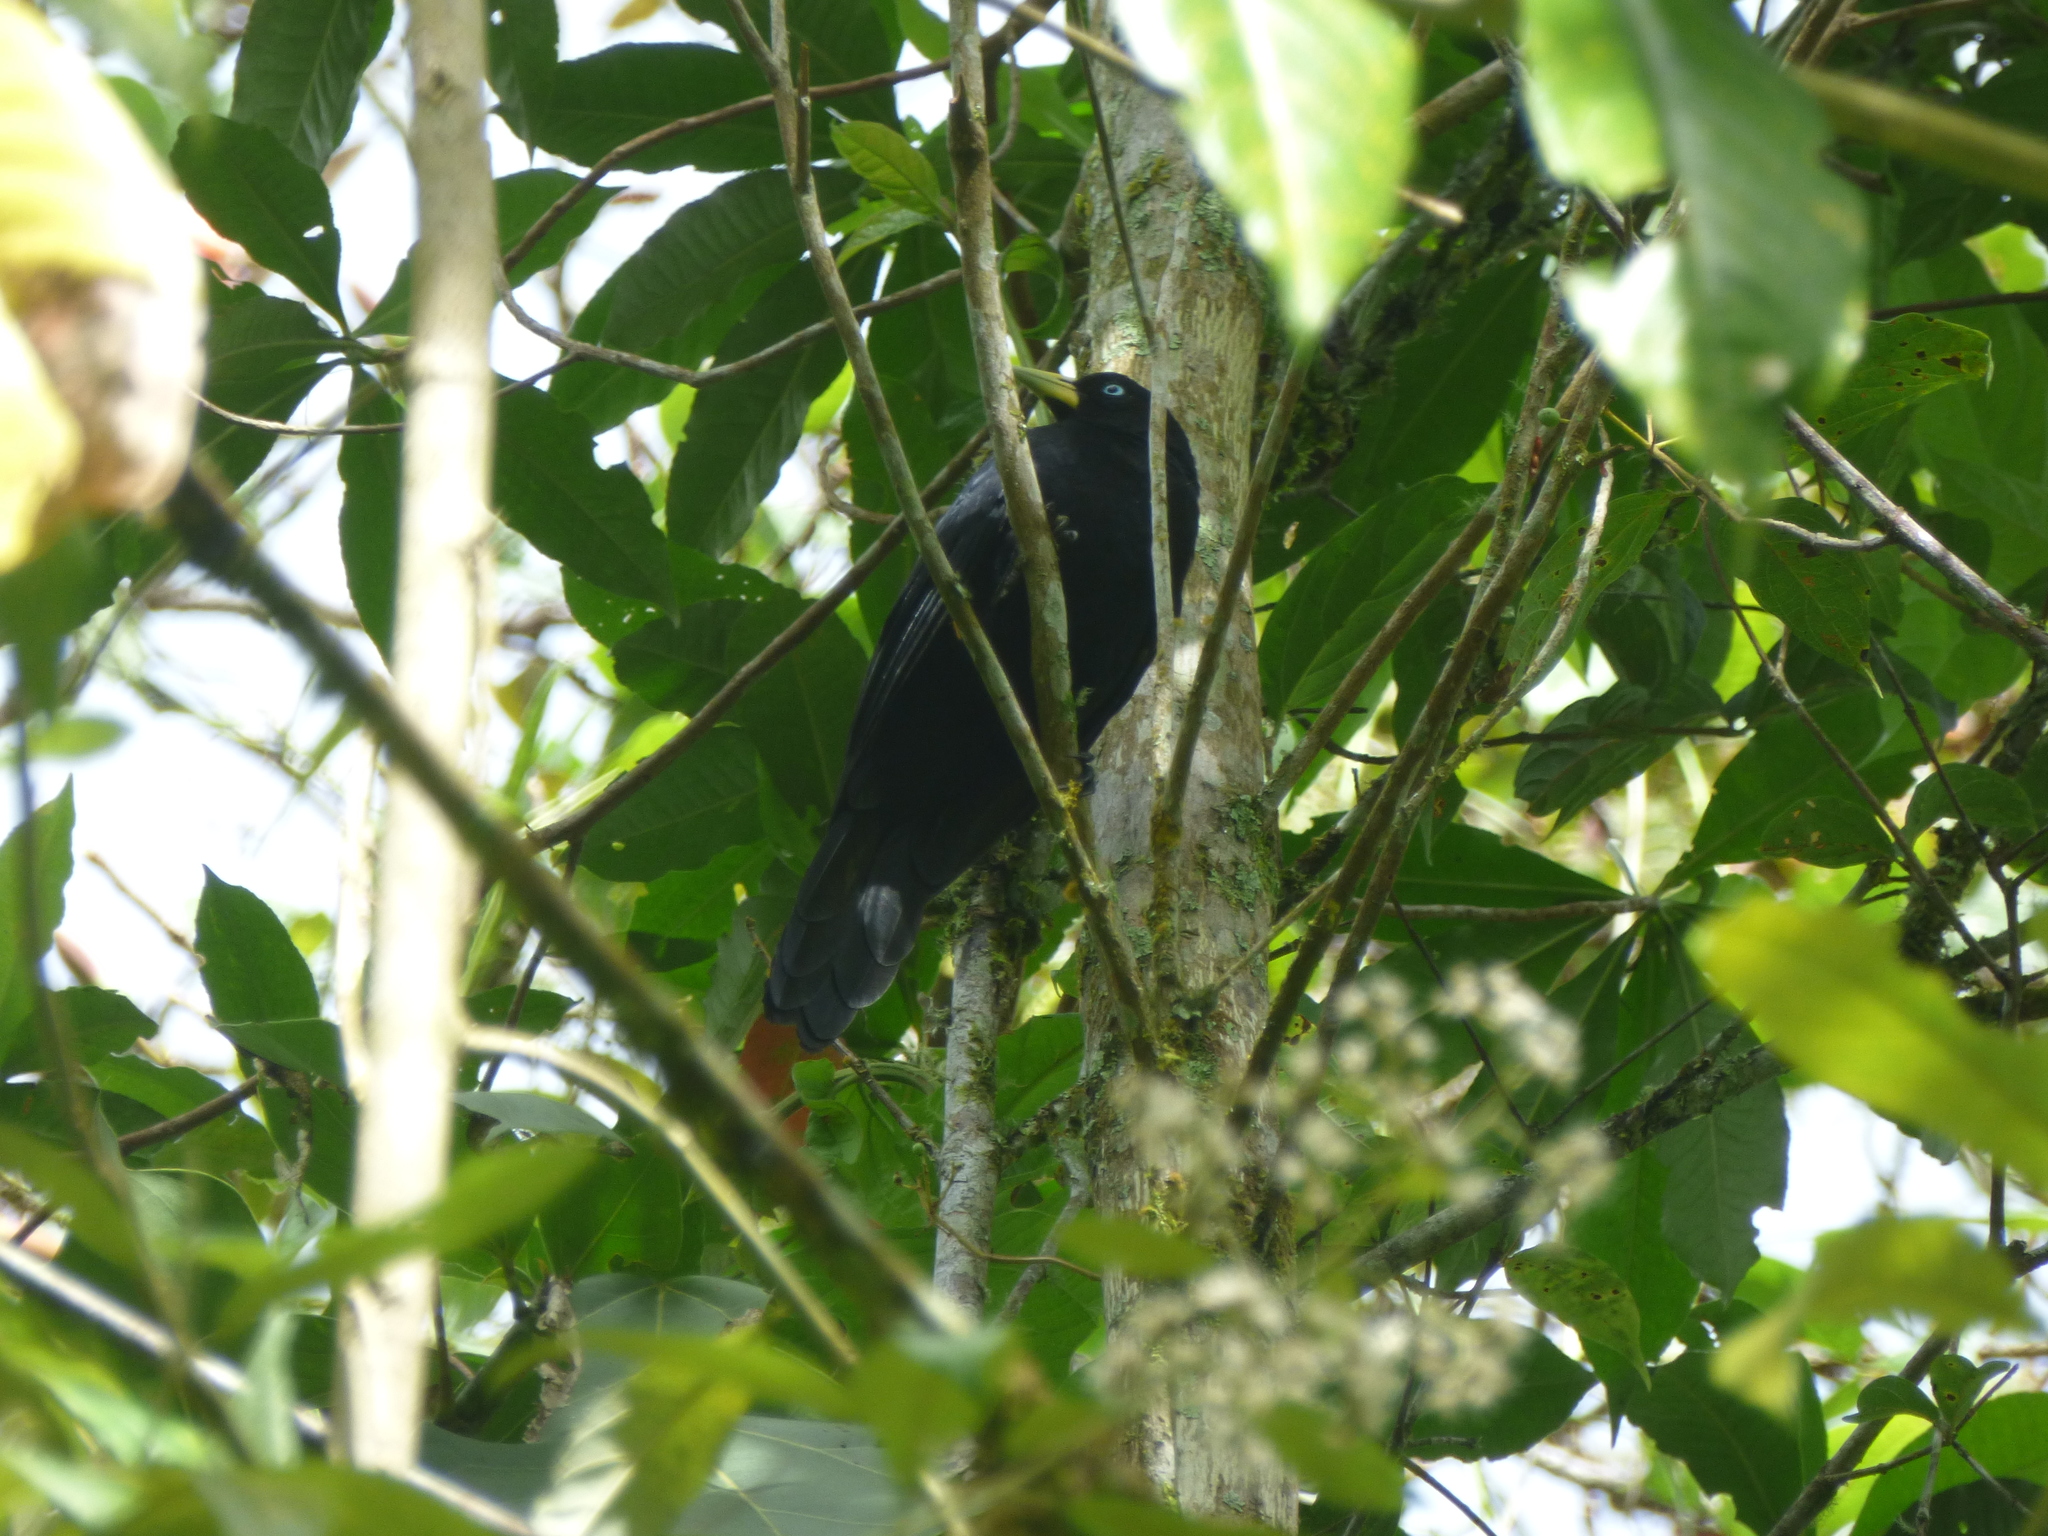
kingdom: Animalia
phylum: Chordata
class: Aves
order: Passeriformes
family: Icteridae
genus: Cacicus
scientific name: Cacicus chrysonotus
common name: Southern mountain cacique
